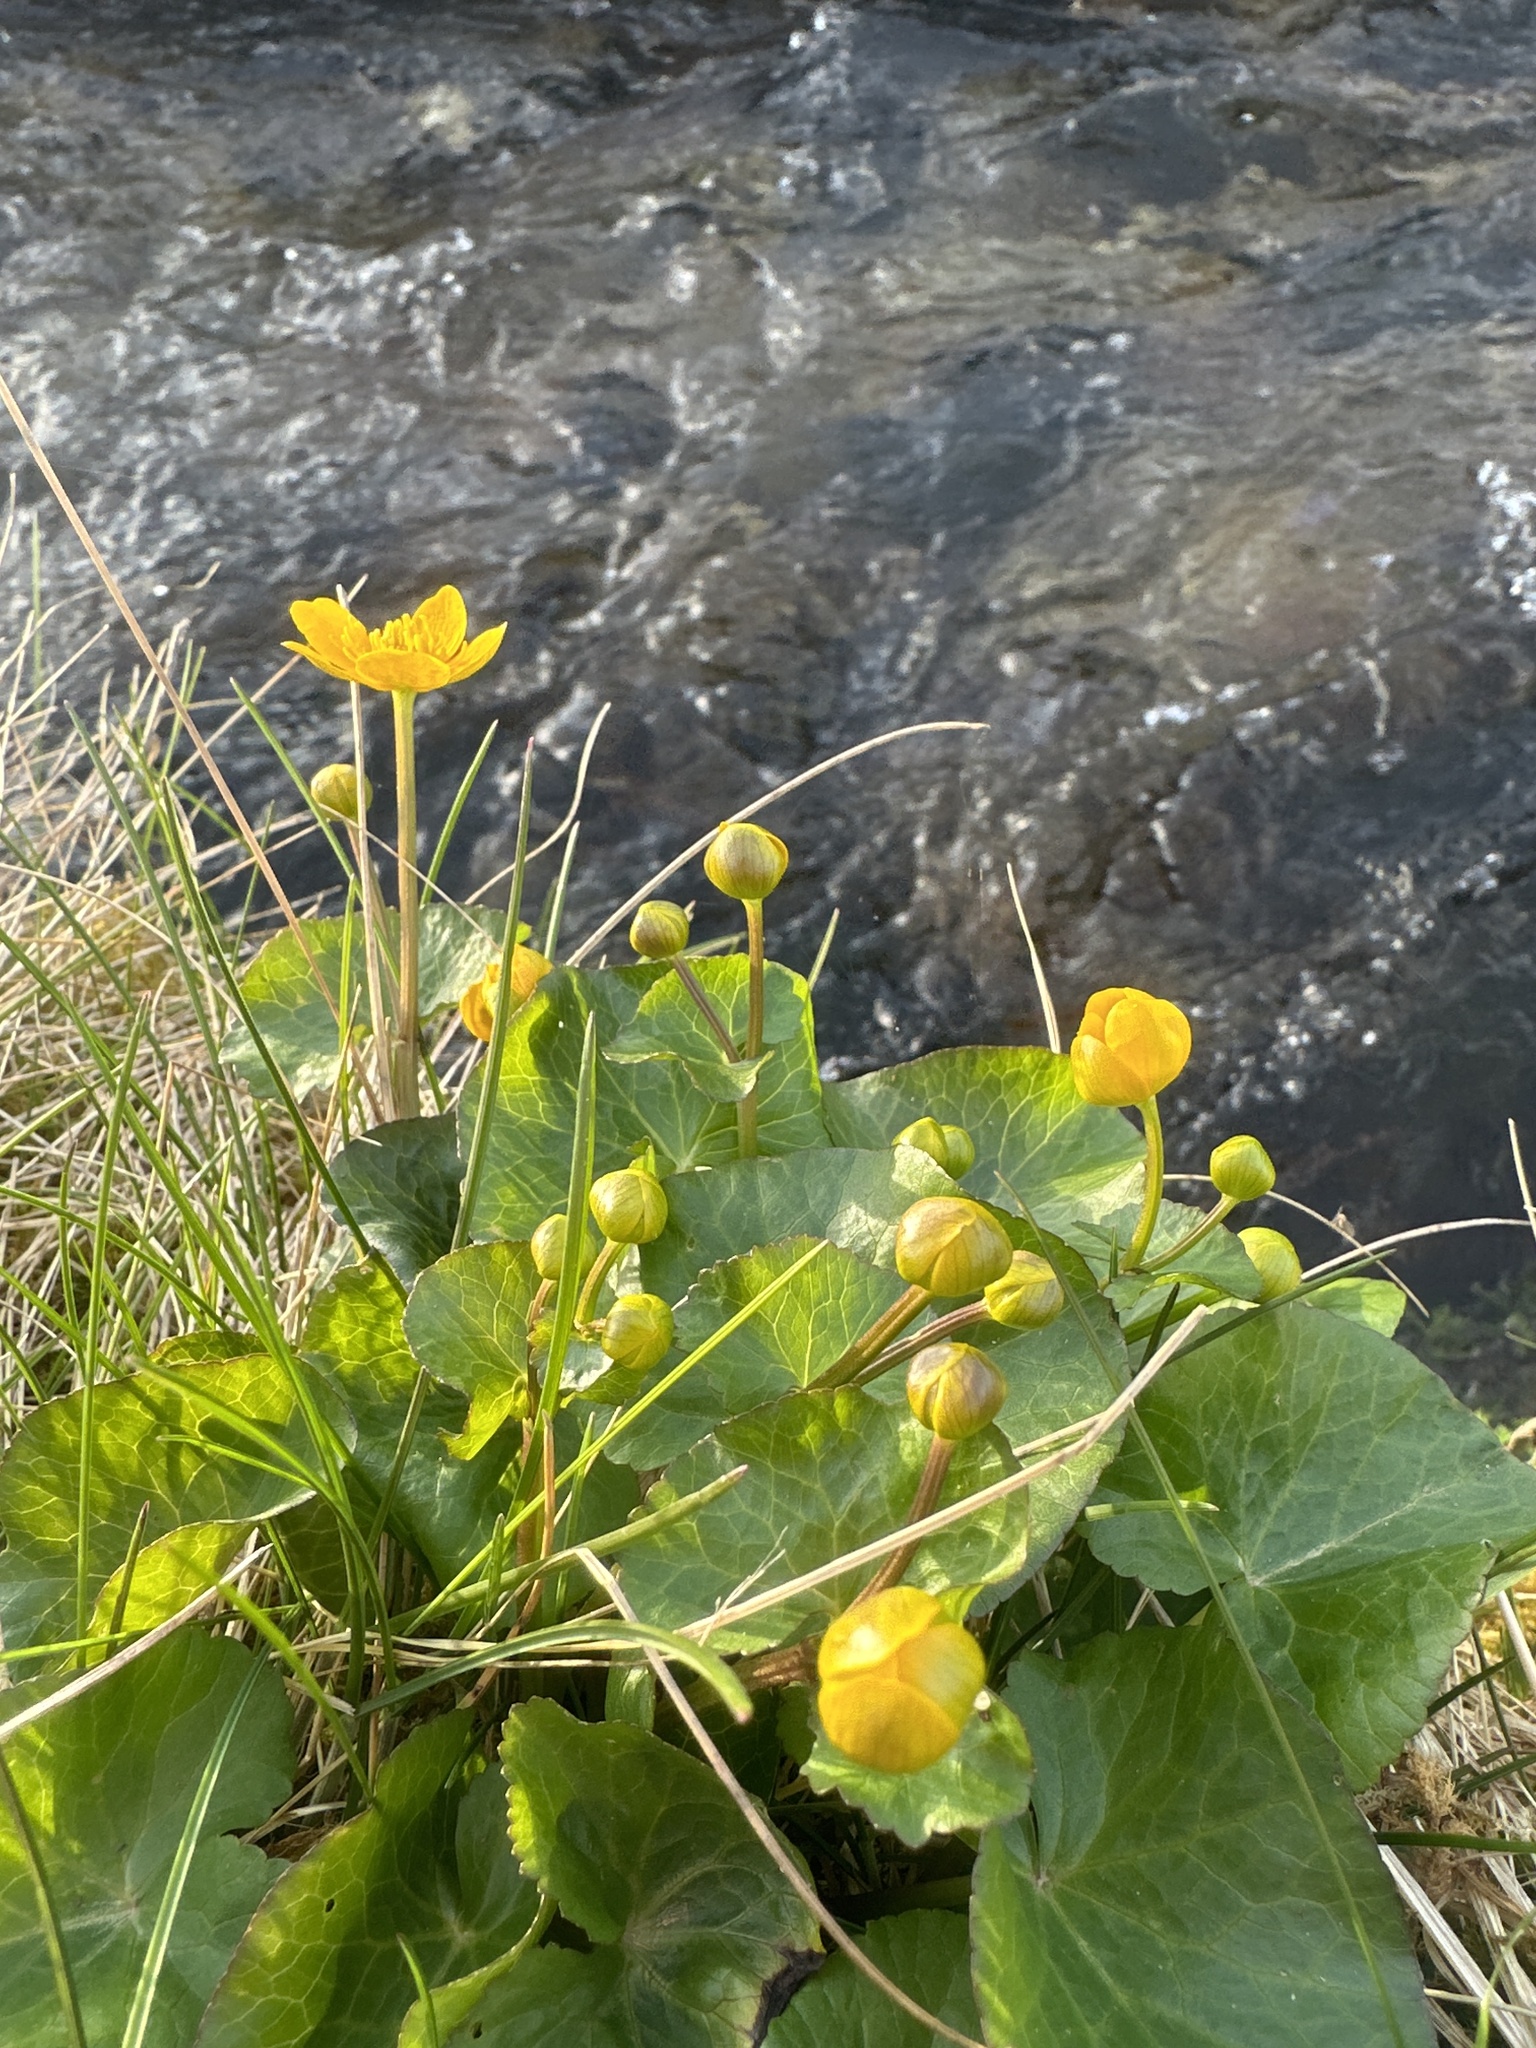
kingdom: Plantae
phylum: Tracheophyta
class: Magnoliopsida
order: Ranunculales
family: Ranunculaceae
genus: Caltha
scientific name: Caltha palustris
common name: Marsh marigold
